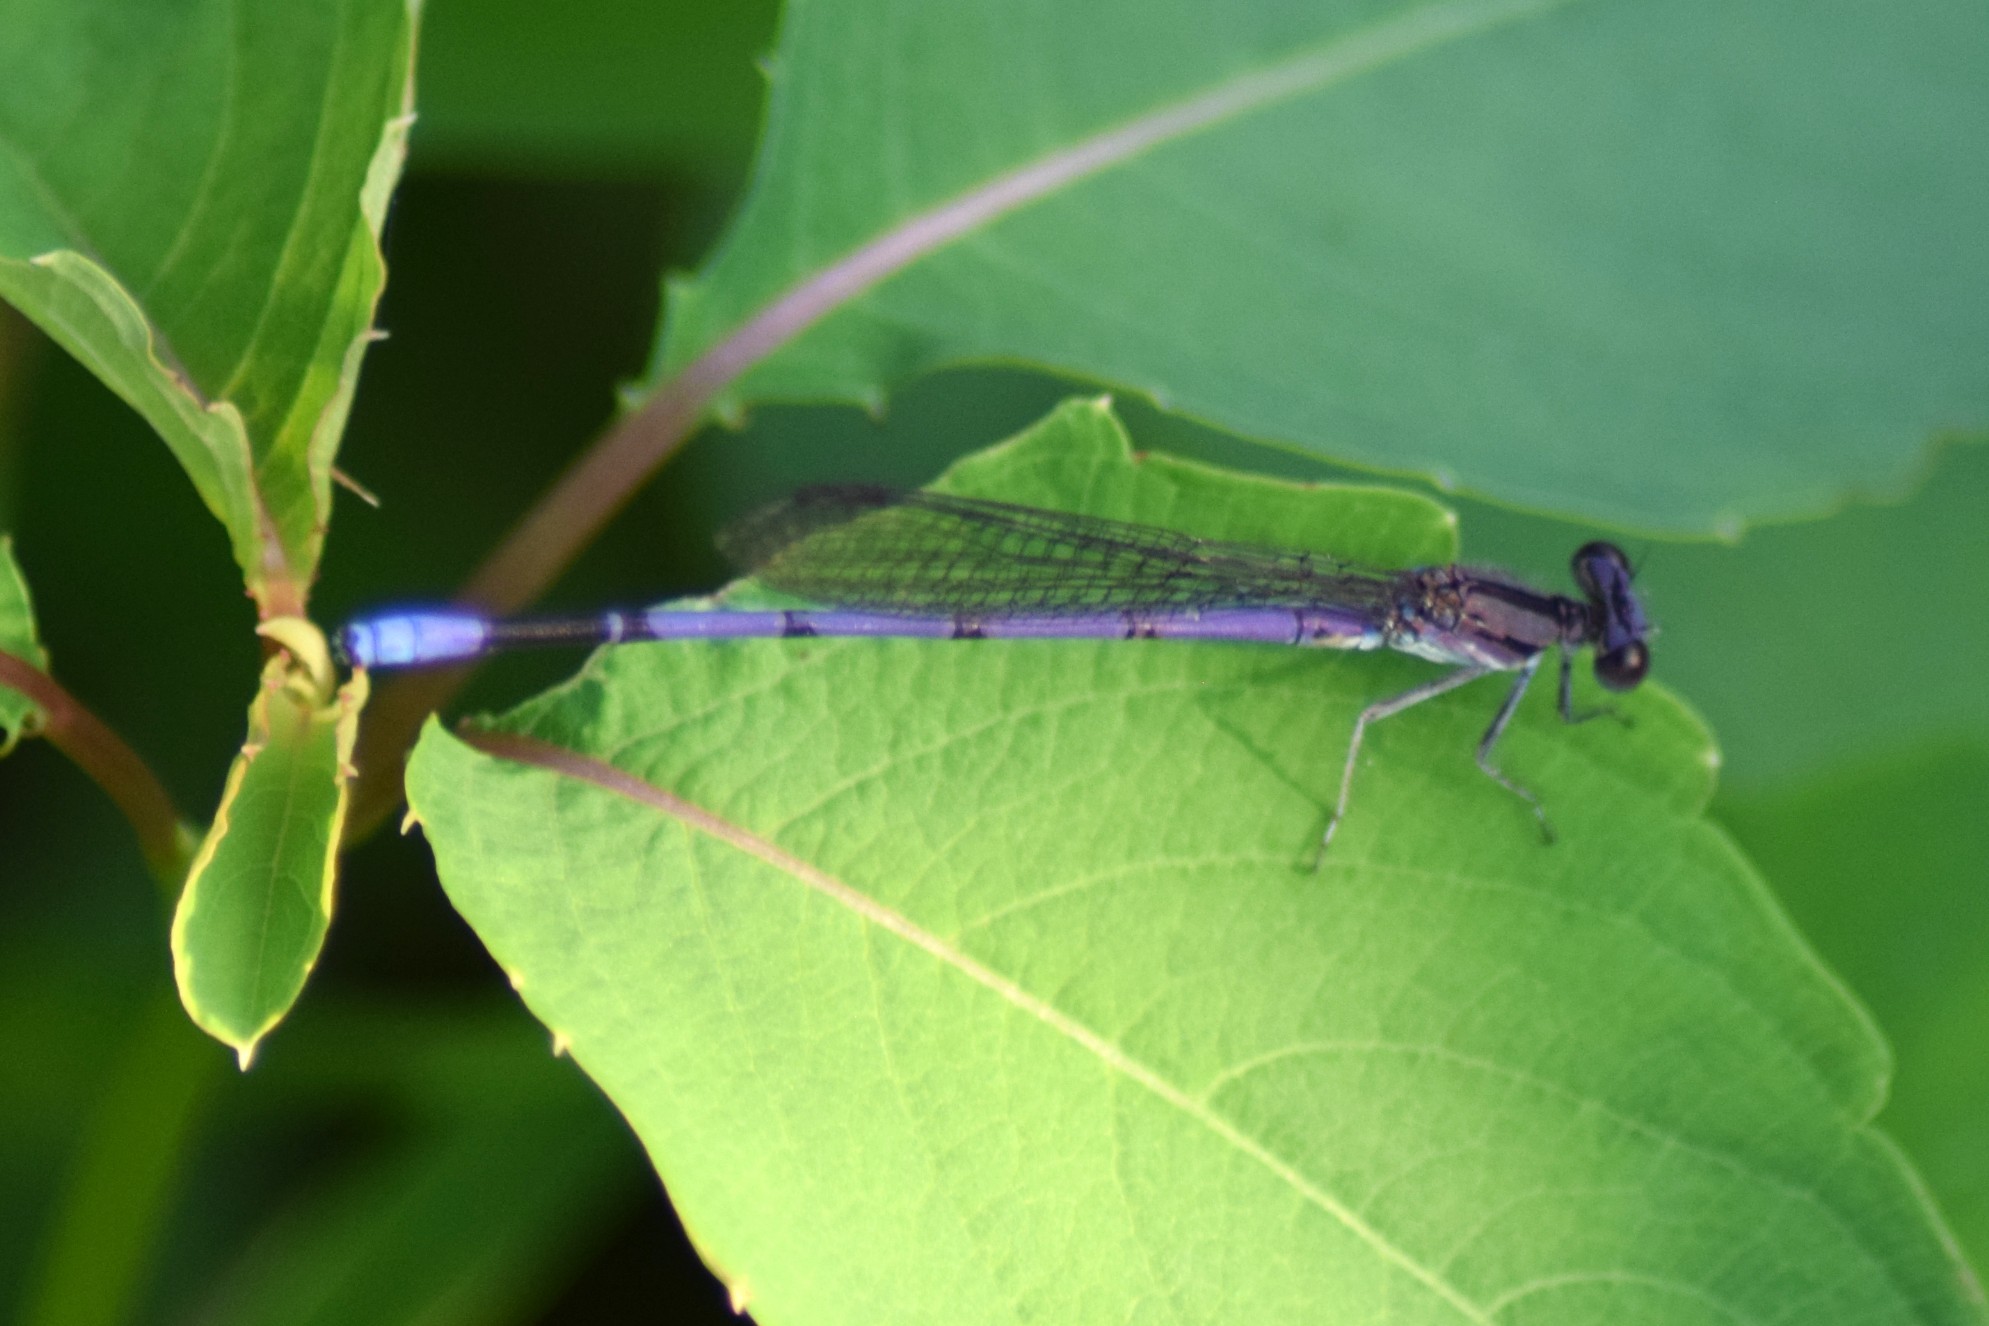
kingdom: Animalia
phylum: Arthropoda
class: Insecta
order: Odonata
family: Coenagrionidae
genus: Argia
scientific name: Argia fumipennis
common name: Variable dancer
